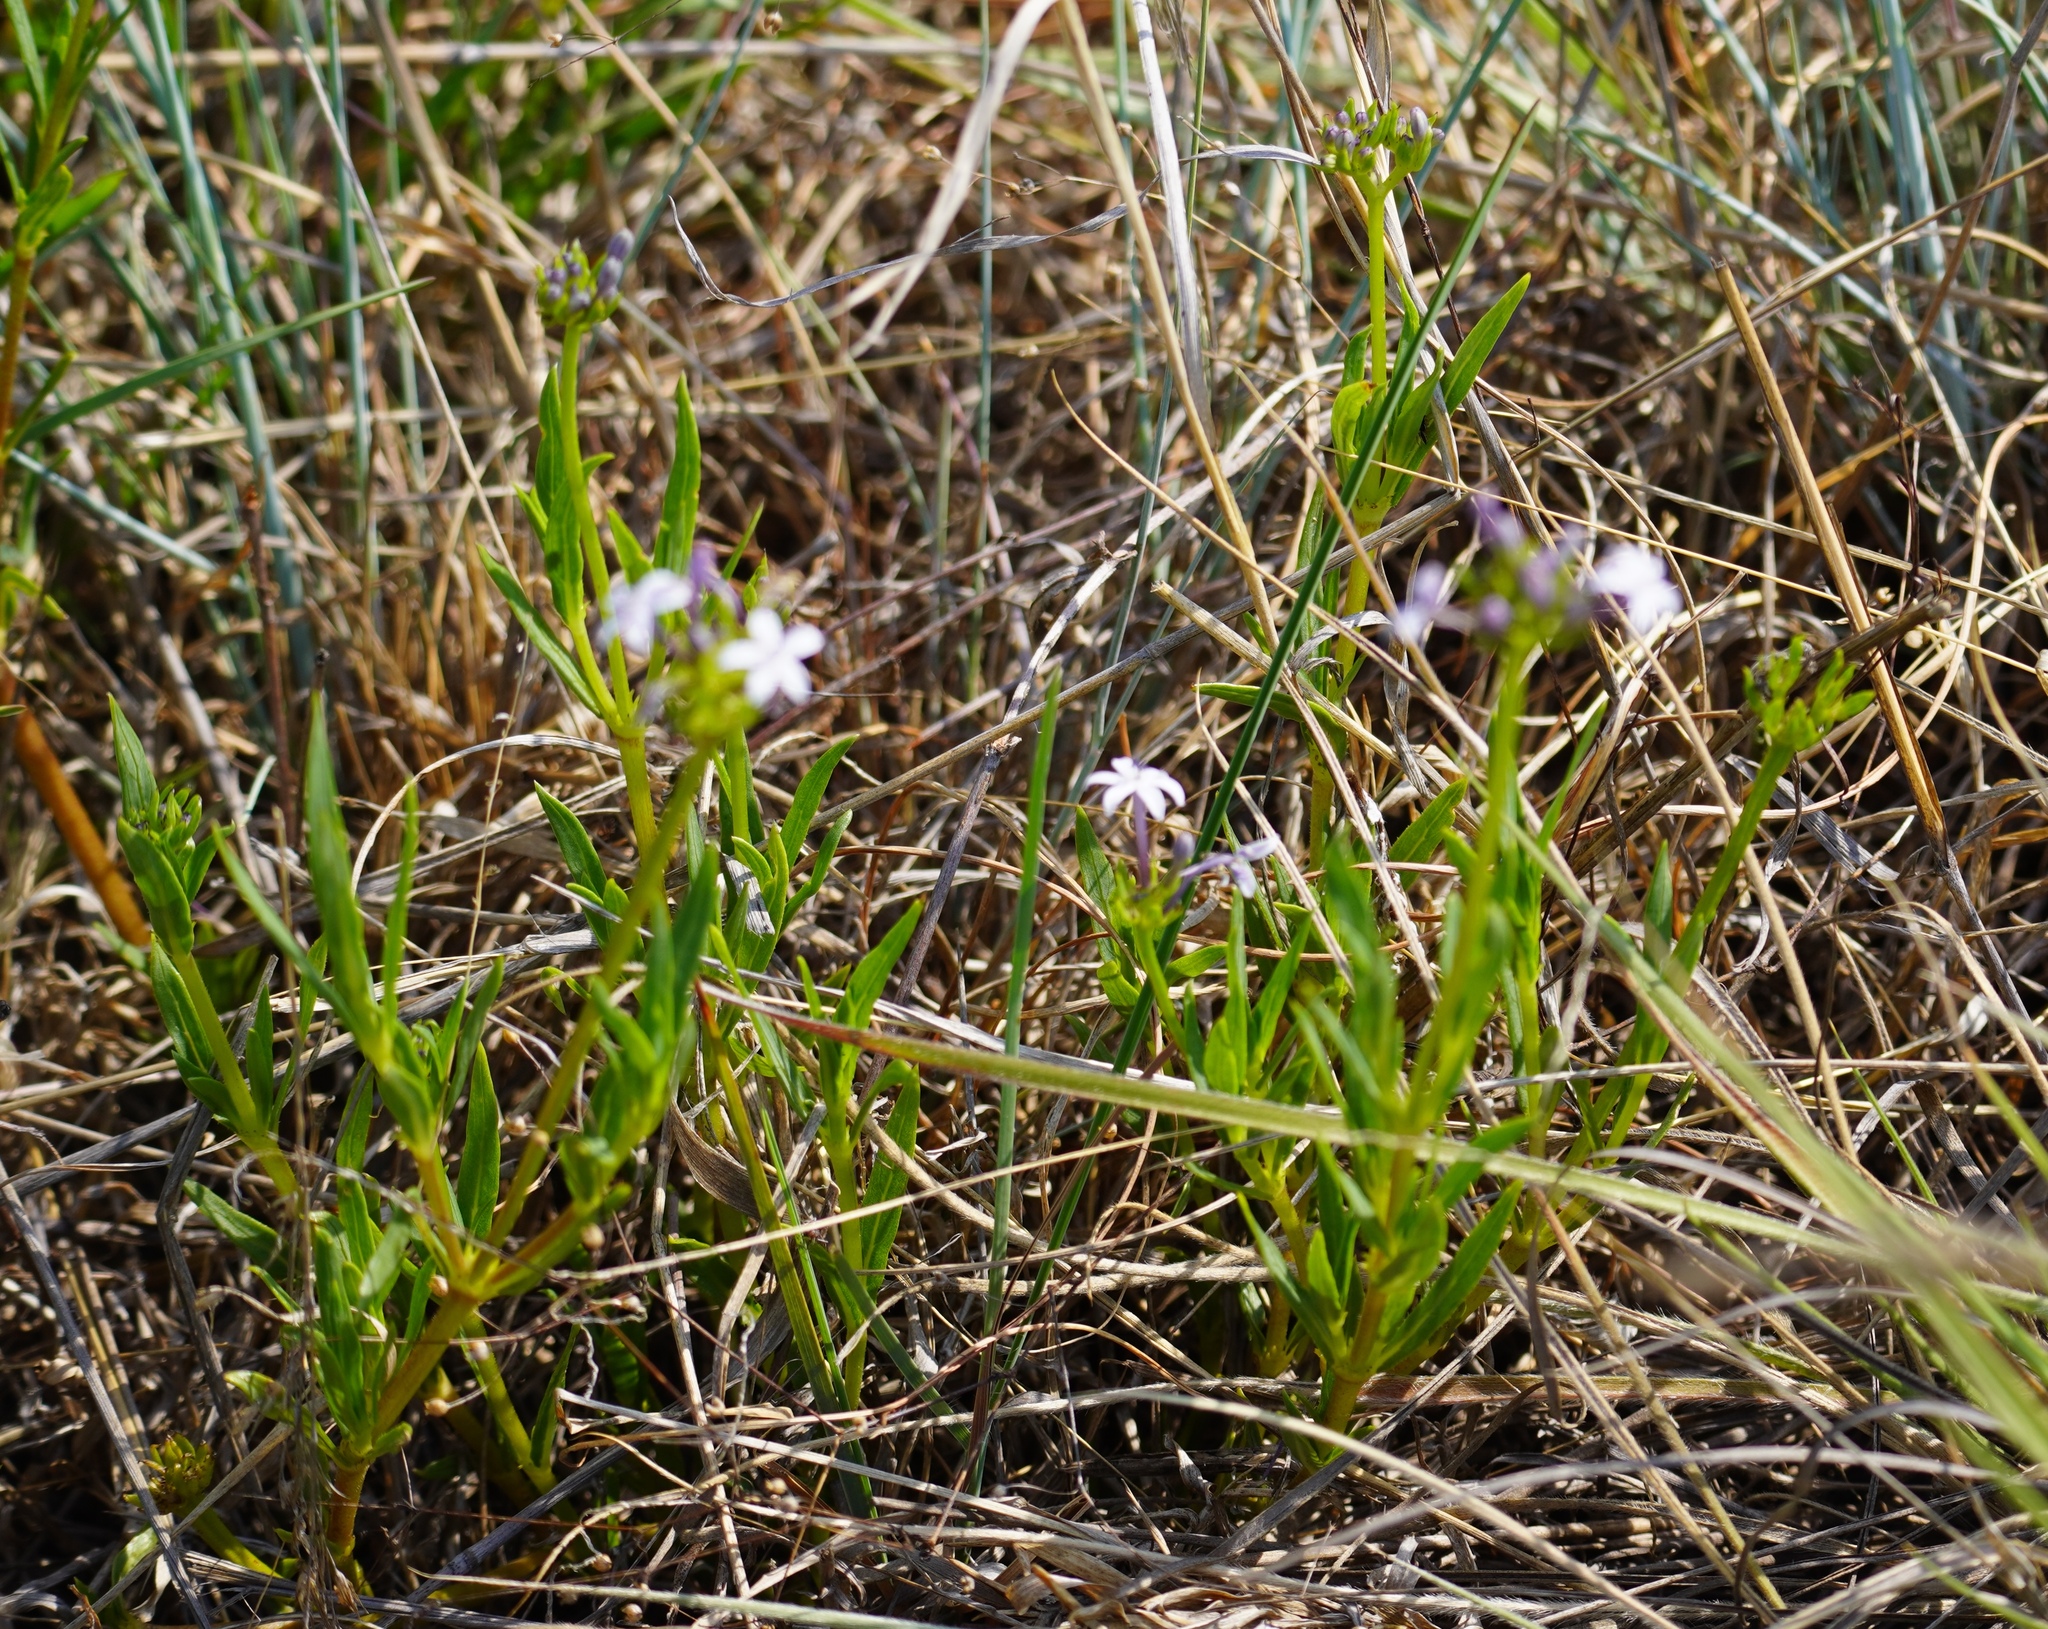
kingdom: Plantae
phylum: Tracheophyta
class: Magnoliopsida
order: Gentianales
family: Rubiaceae
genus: Pentanisia
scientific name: Pentanisia angustifolia
